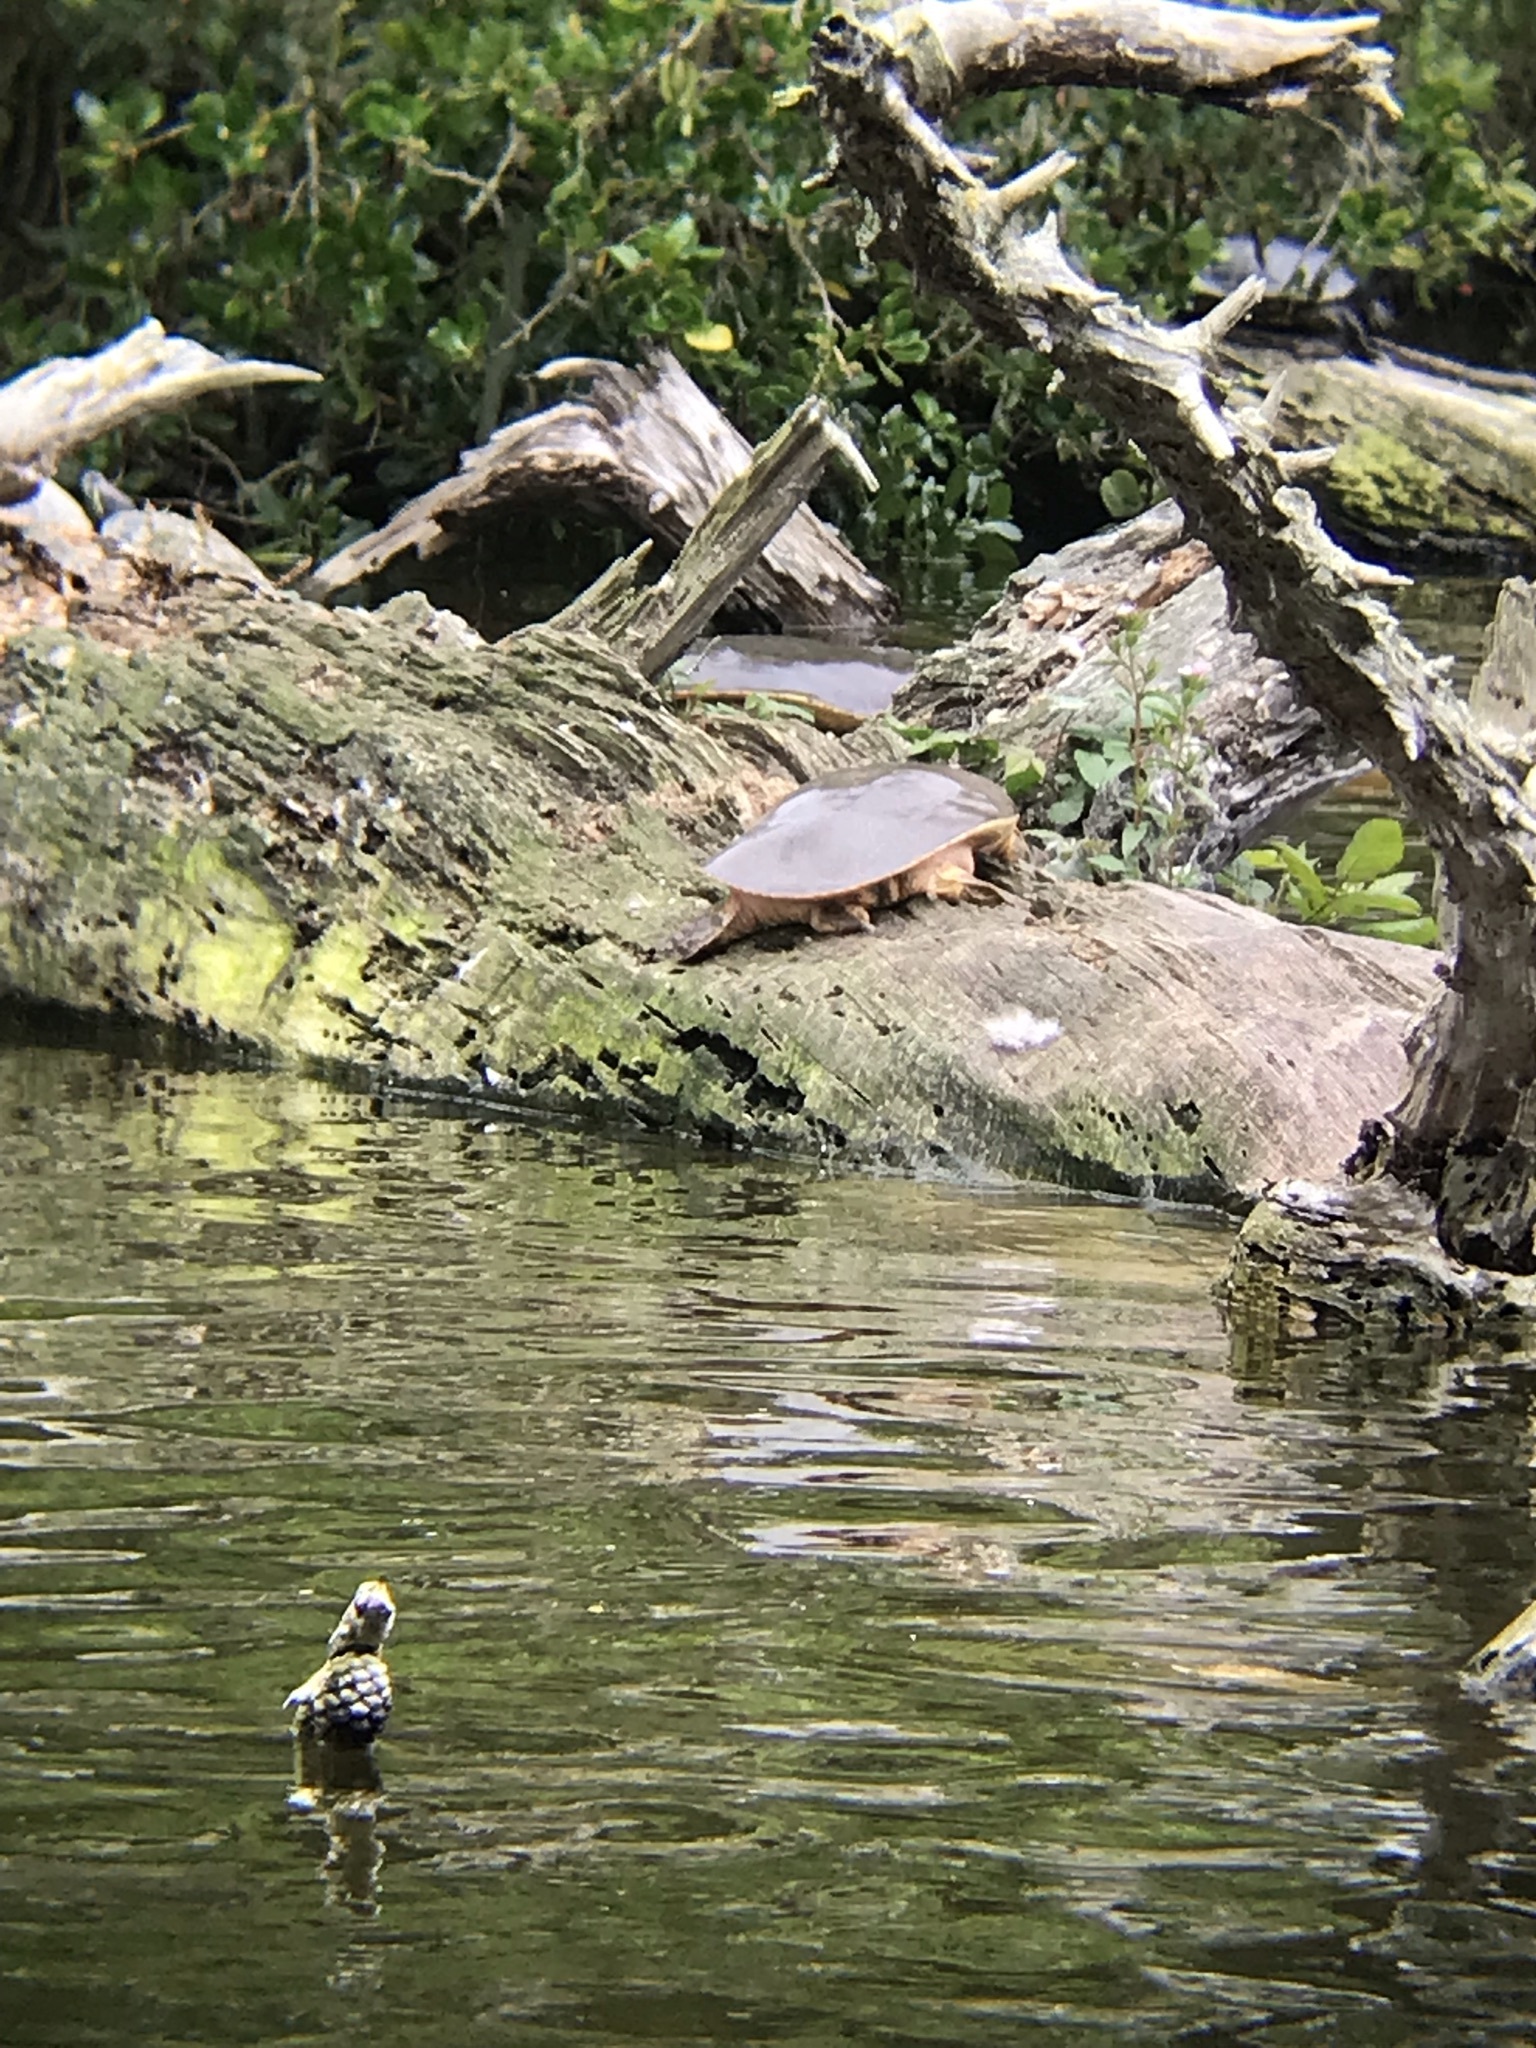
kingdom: Animalia
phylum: Chordata
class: Testudines
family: Trionychidae
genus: Apalone
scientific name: Apalone spinifera
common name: Spiny softshell turtle
